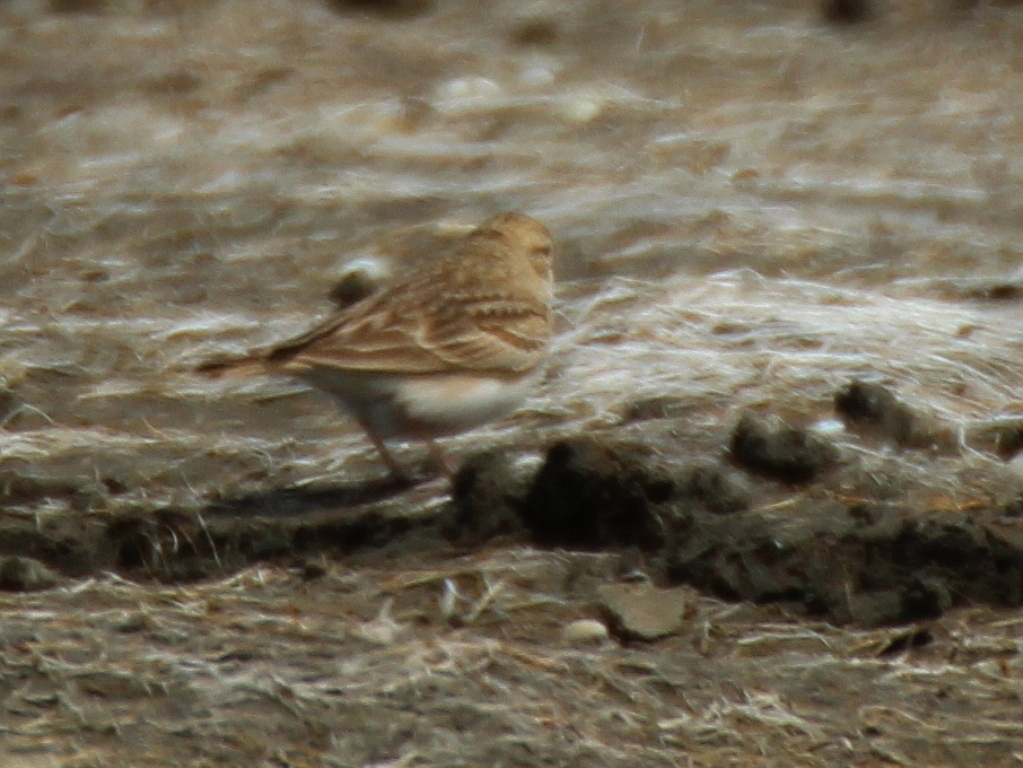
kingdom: Animalia
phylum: Chordata
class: Aves
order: Passeriformes
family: Alaudidae
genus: Calandrella
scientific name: Calandrella brachydactyla
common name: Greater short-toed lark
